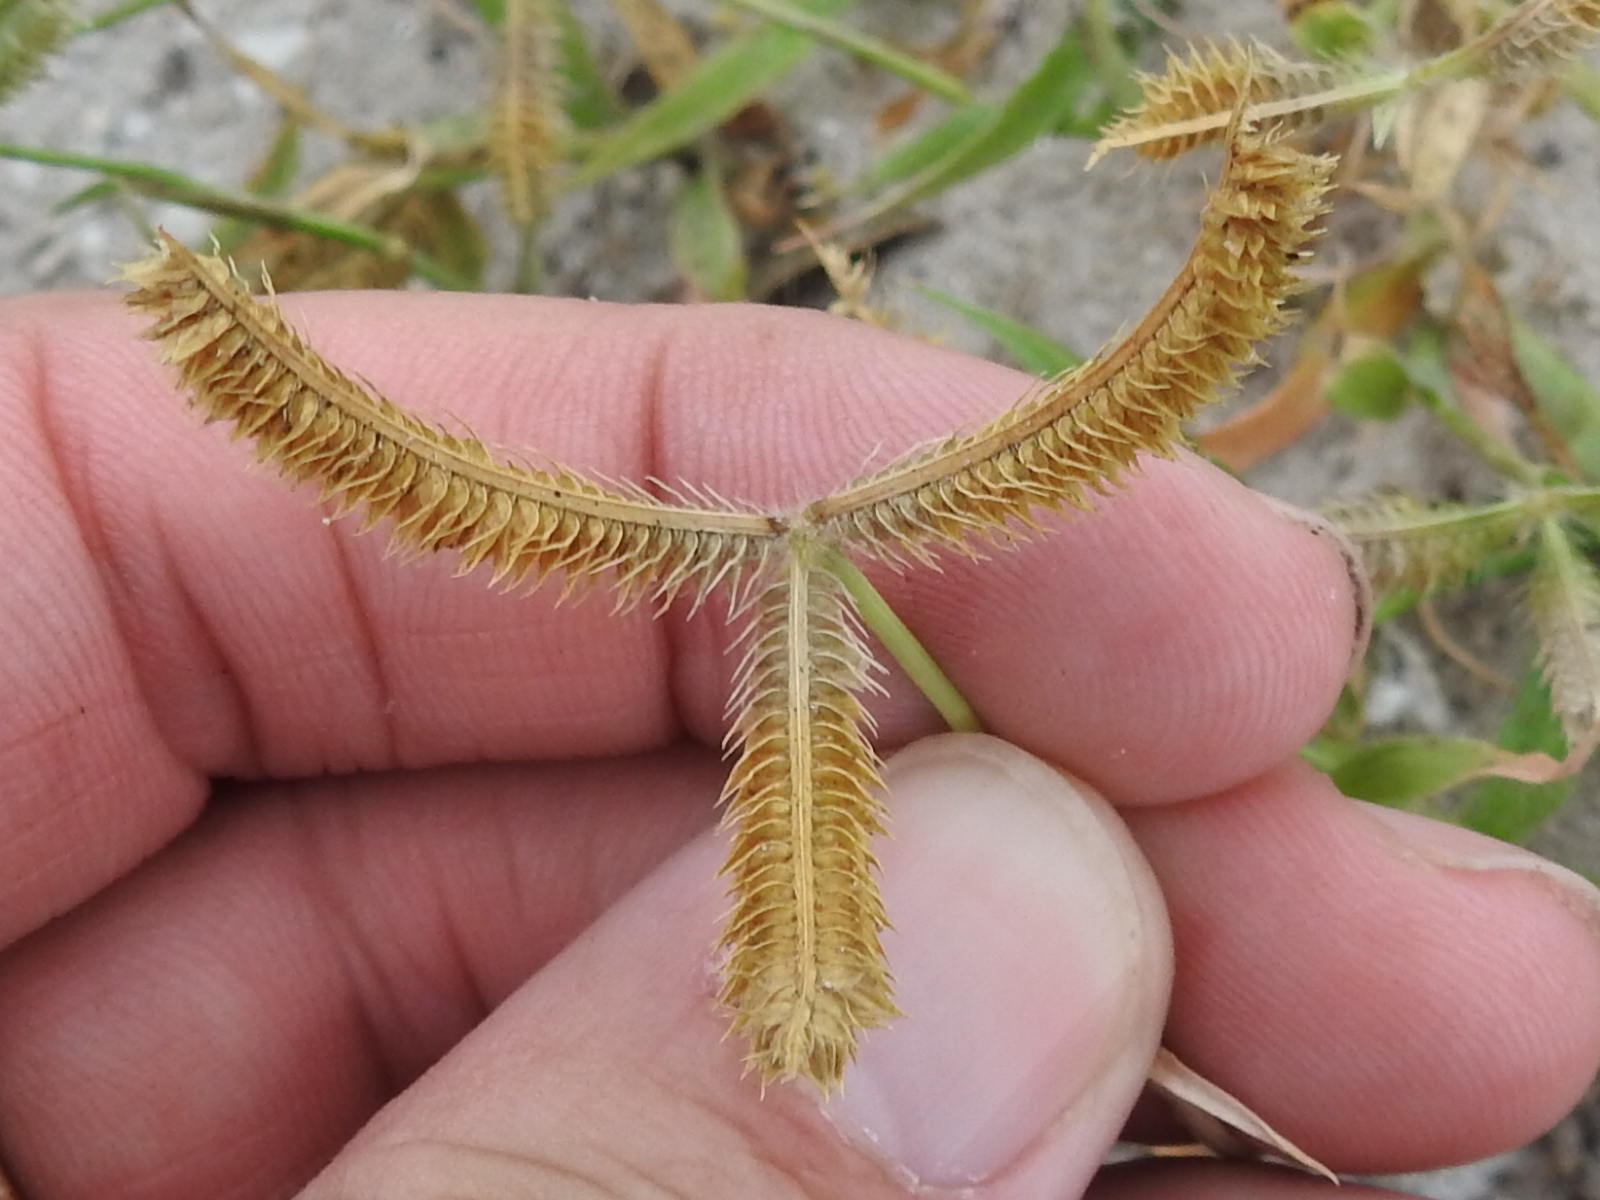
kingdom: Plantae
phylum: Tracheophyta
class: Liliopsida
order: Poales
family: Poaceae
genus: Dactyloctenium
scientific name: Dactyloctenium aegyptium
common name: Egyptian grass
